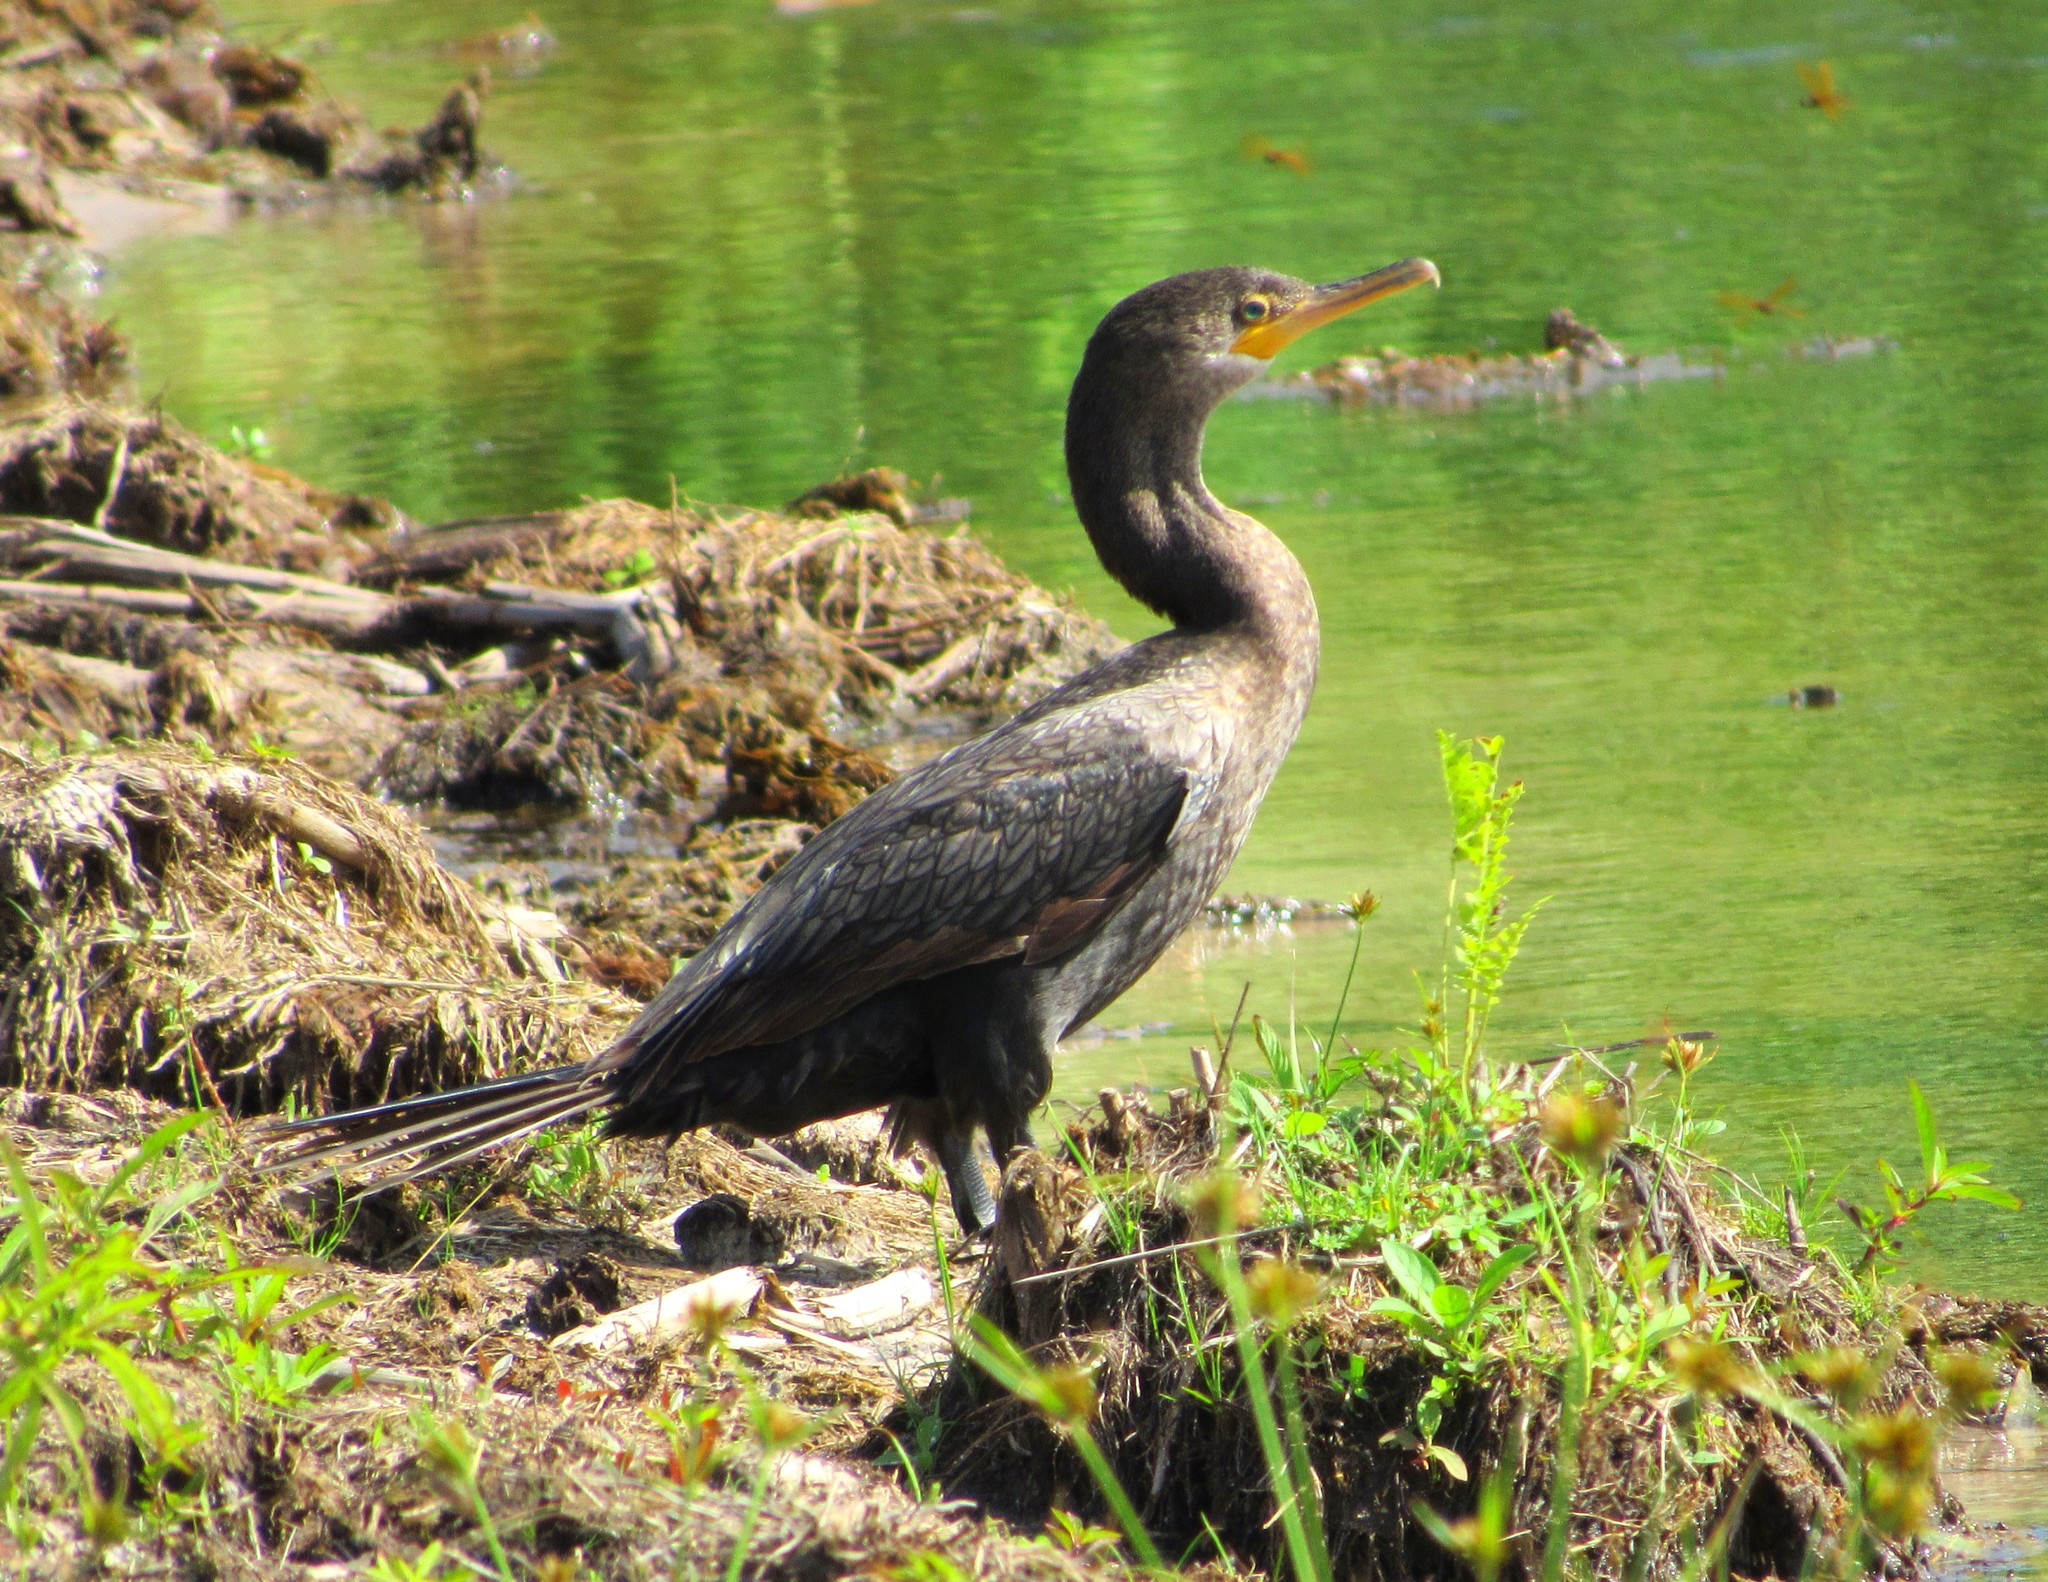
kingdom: Animalia
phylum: Chordata
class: Aves
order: Suliformes
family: Phalacrocoracidae
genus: Phalacrocorax
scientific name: Phalacrocorax brasilianus
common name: Neotropic cormorant
